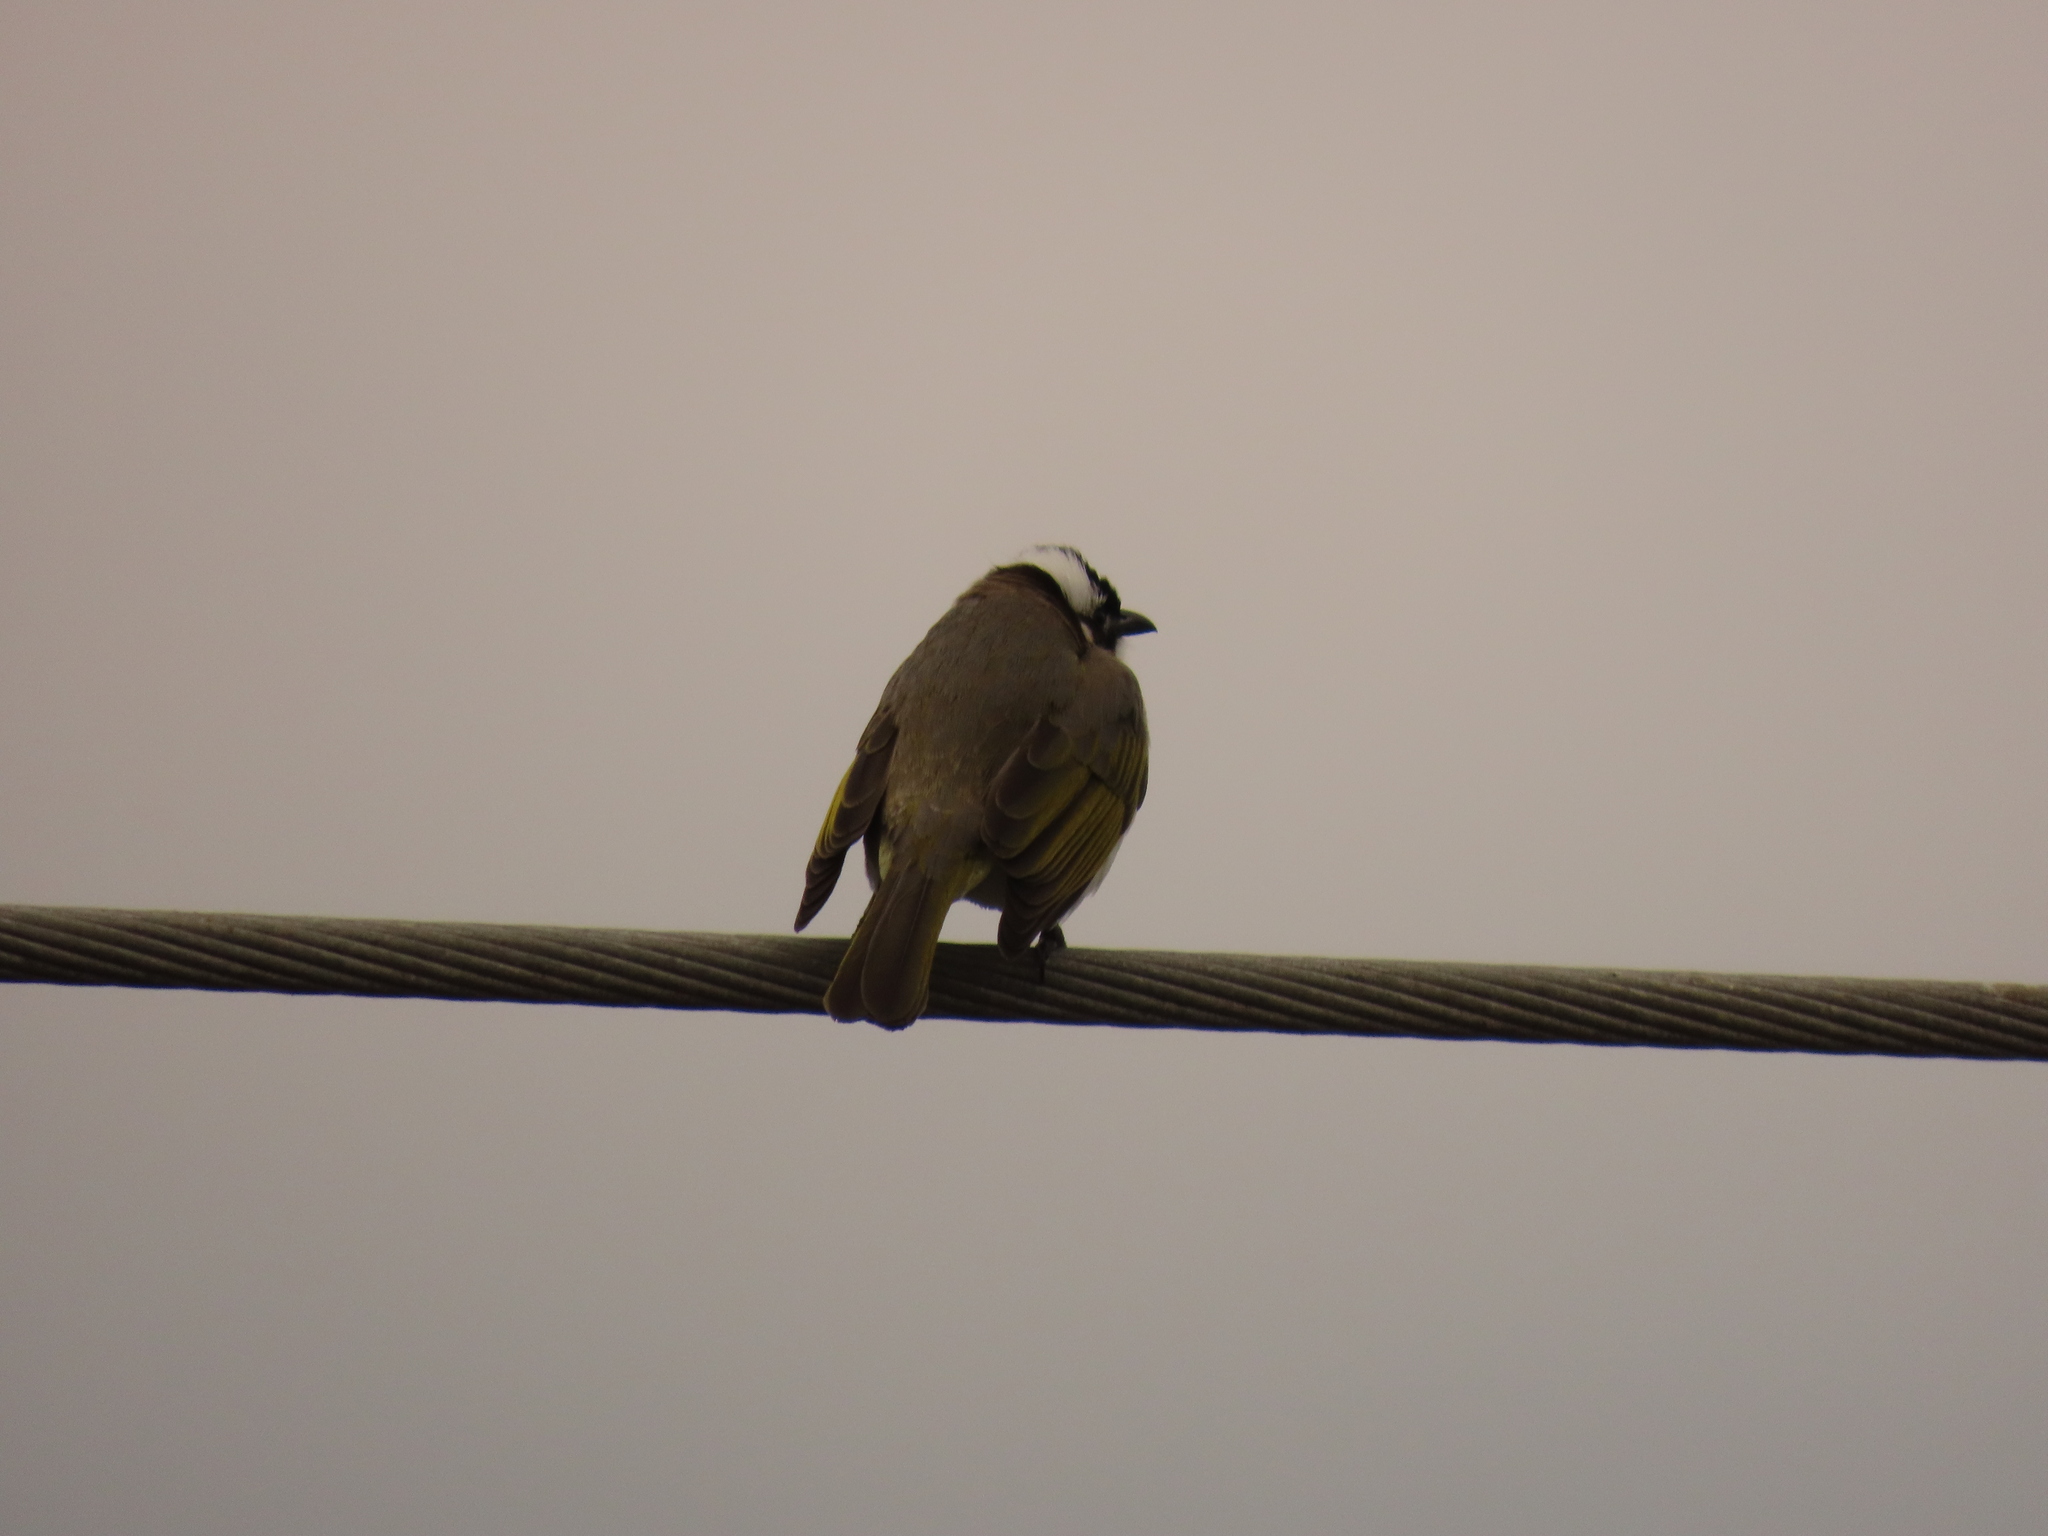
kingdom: Animalia
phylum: Chordata
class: Aves
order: Passeriformes
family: Pycnonotidae
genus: Pycnonotus
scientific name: Pycnonotus sinensis
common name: Light-vented bulbul
